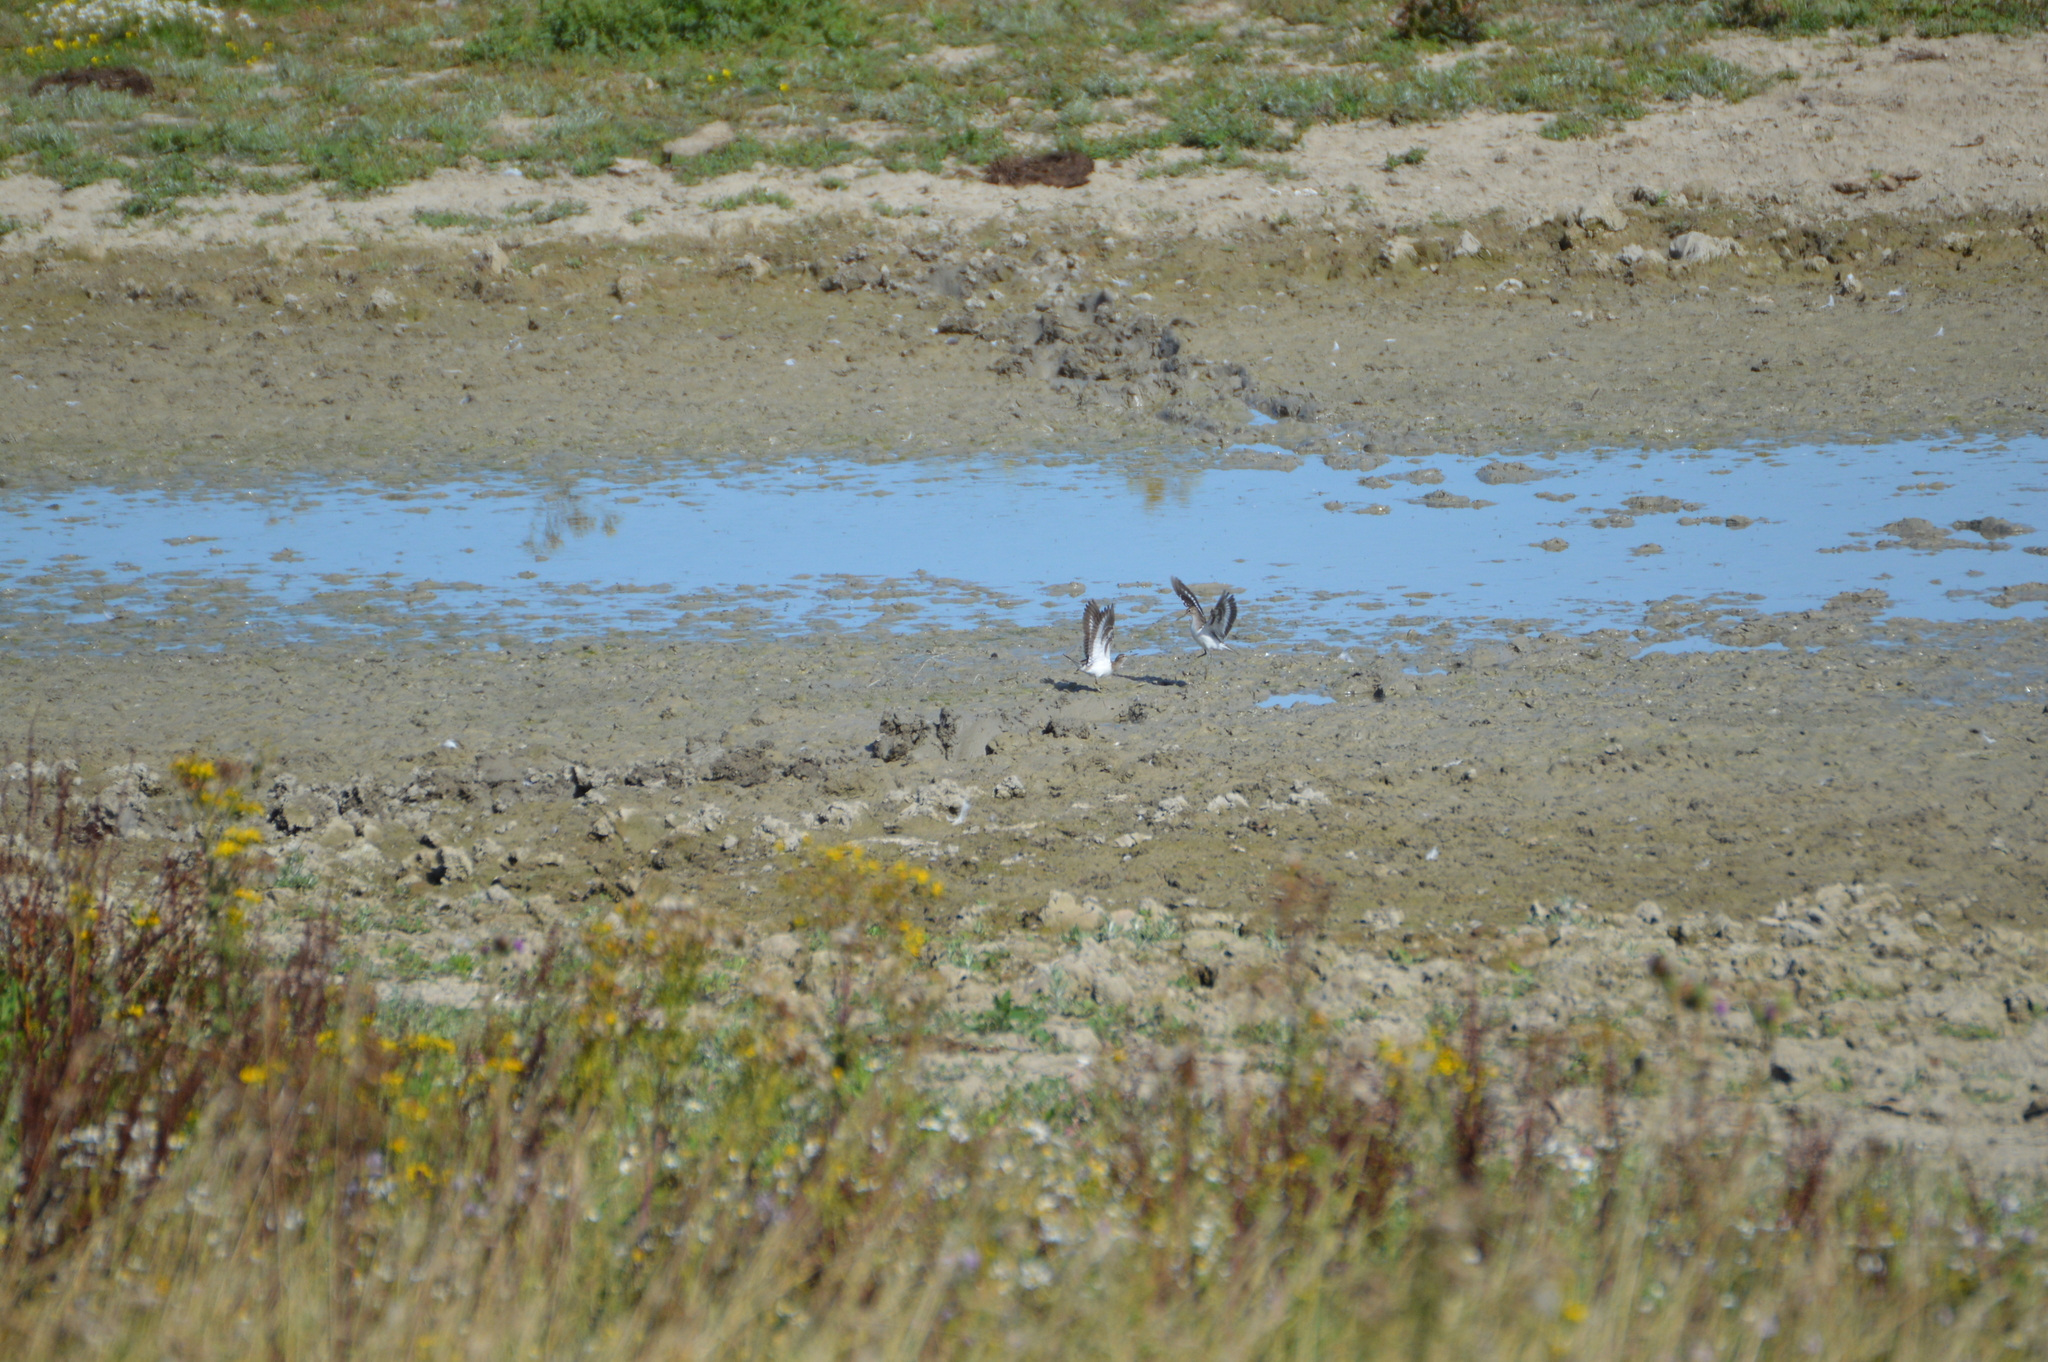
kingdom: Animalia
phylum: Chordata
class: Aves
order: Charadriiformes
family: Scolopacidae
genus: Actitis
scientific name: Actitis hypoleucos
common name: Common sandpiper
